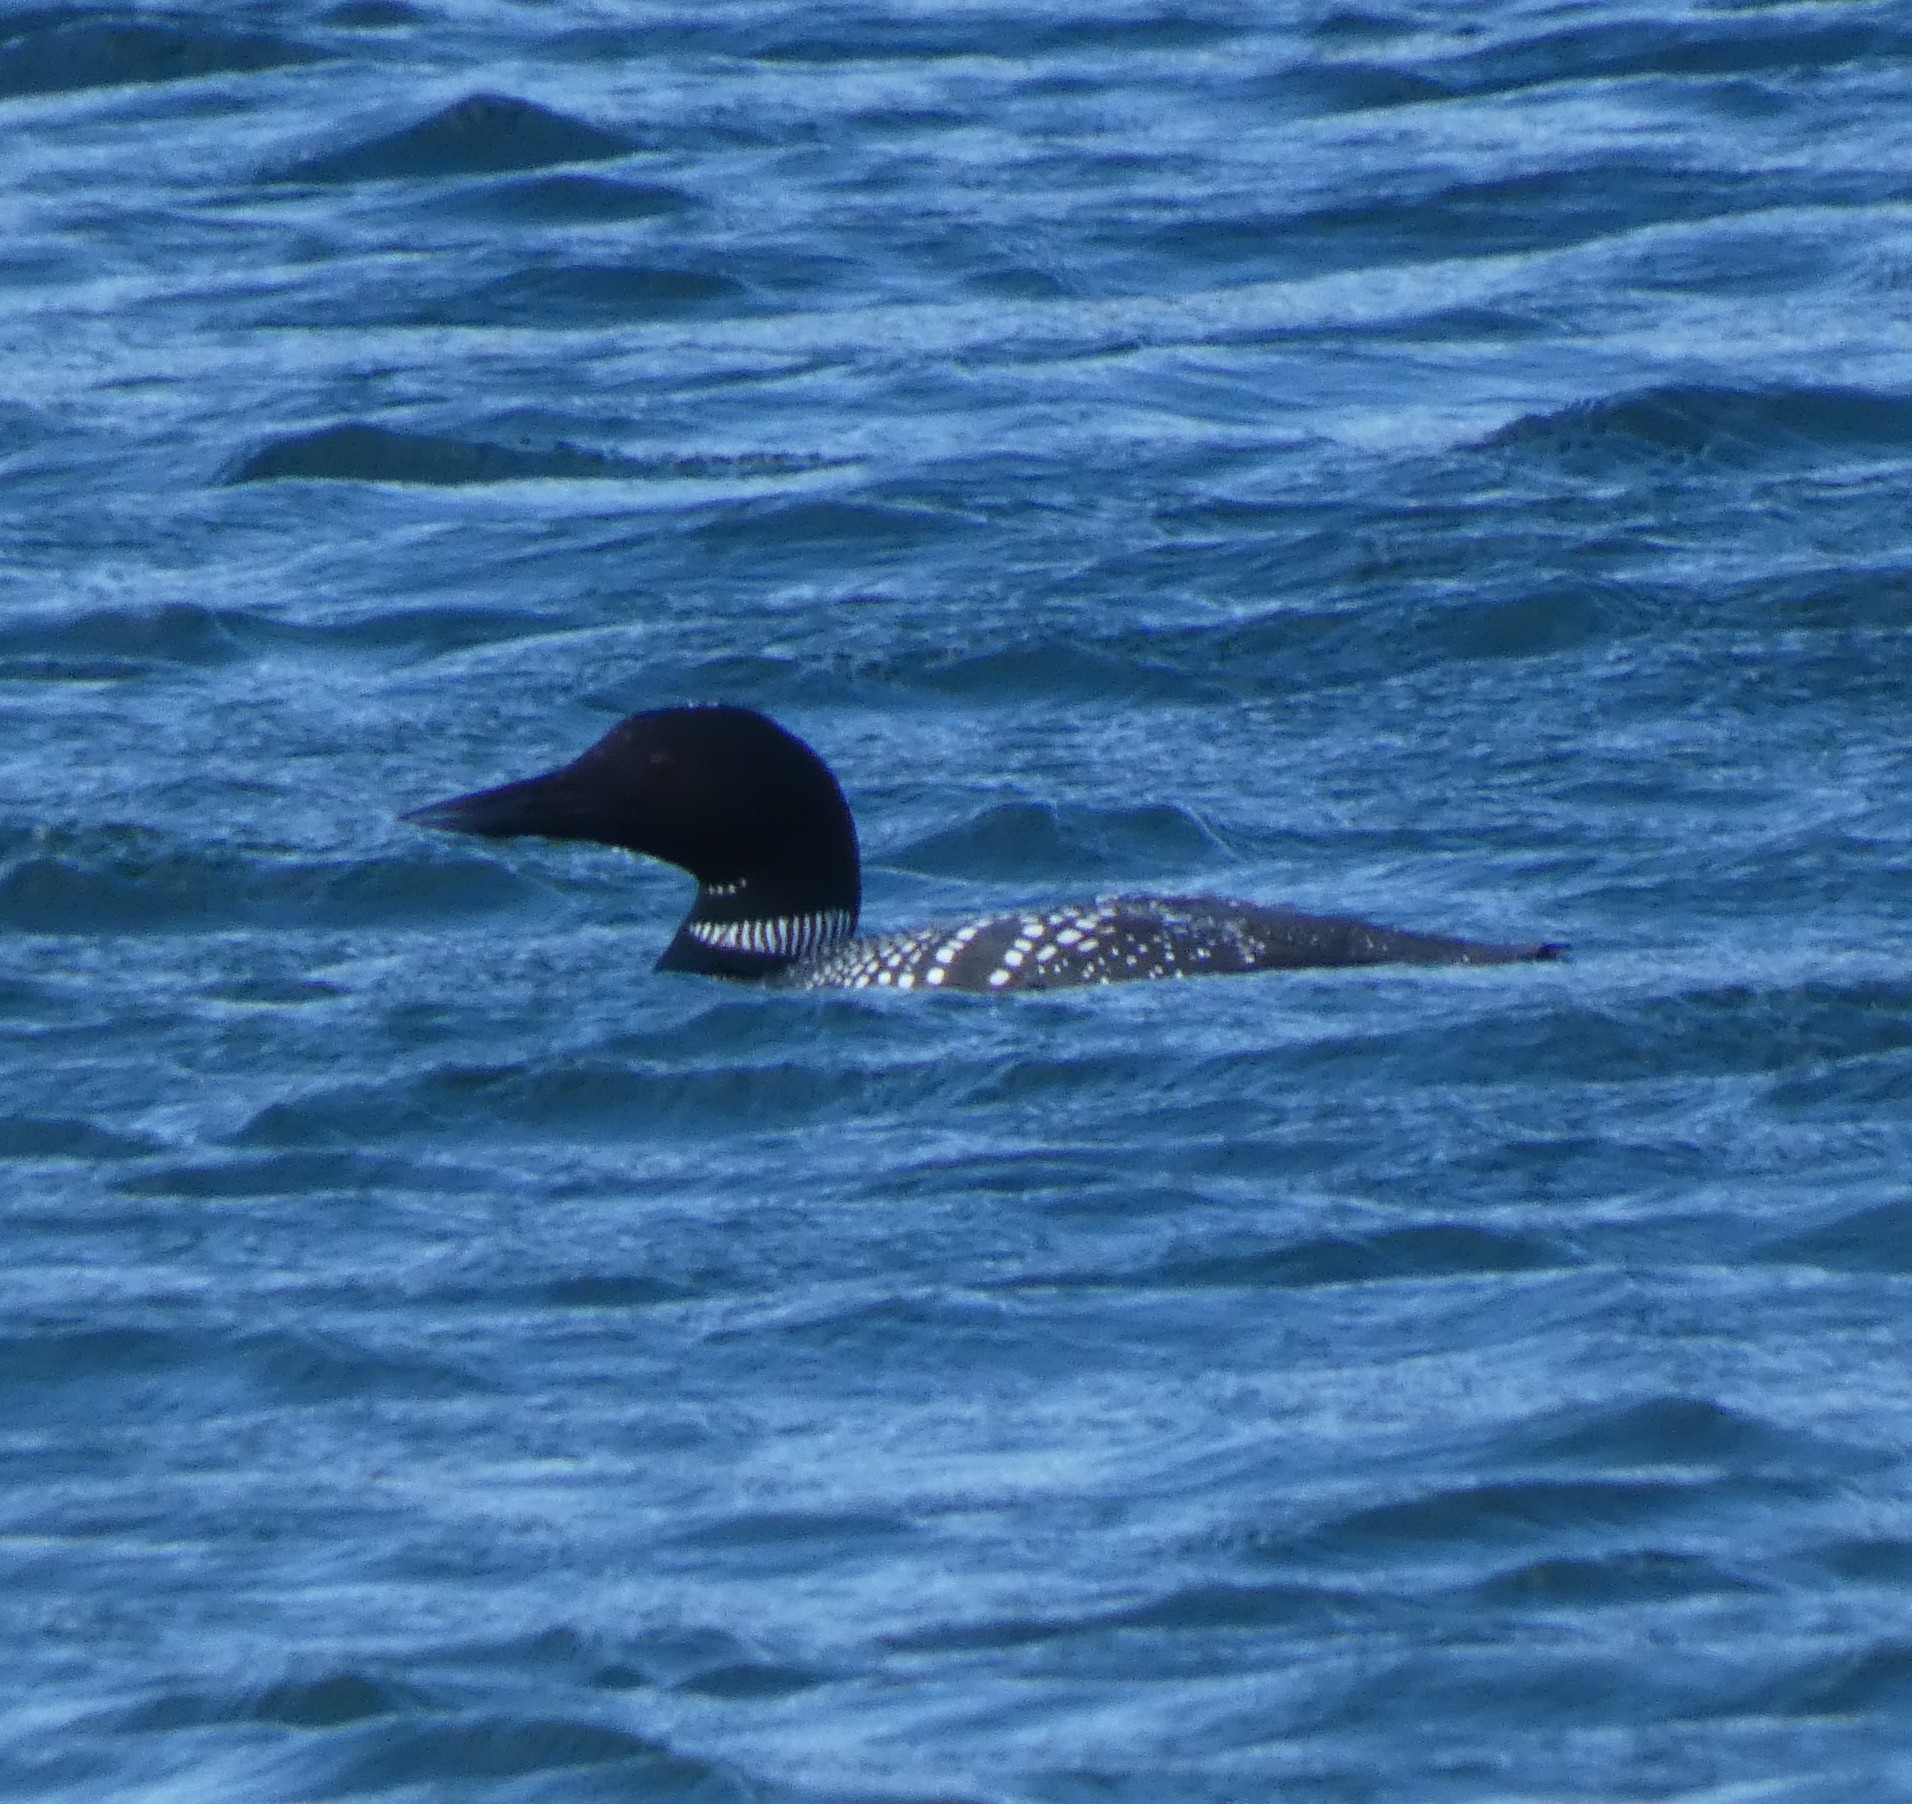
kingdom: Animalia
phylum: Chordata
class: Aves
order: Gaviiformes
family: Gaviidae
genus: Gavia
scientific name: Gavia immer
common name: Common loon
